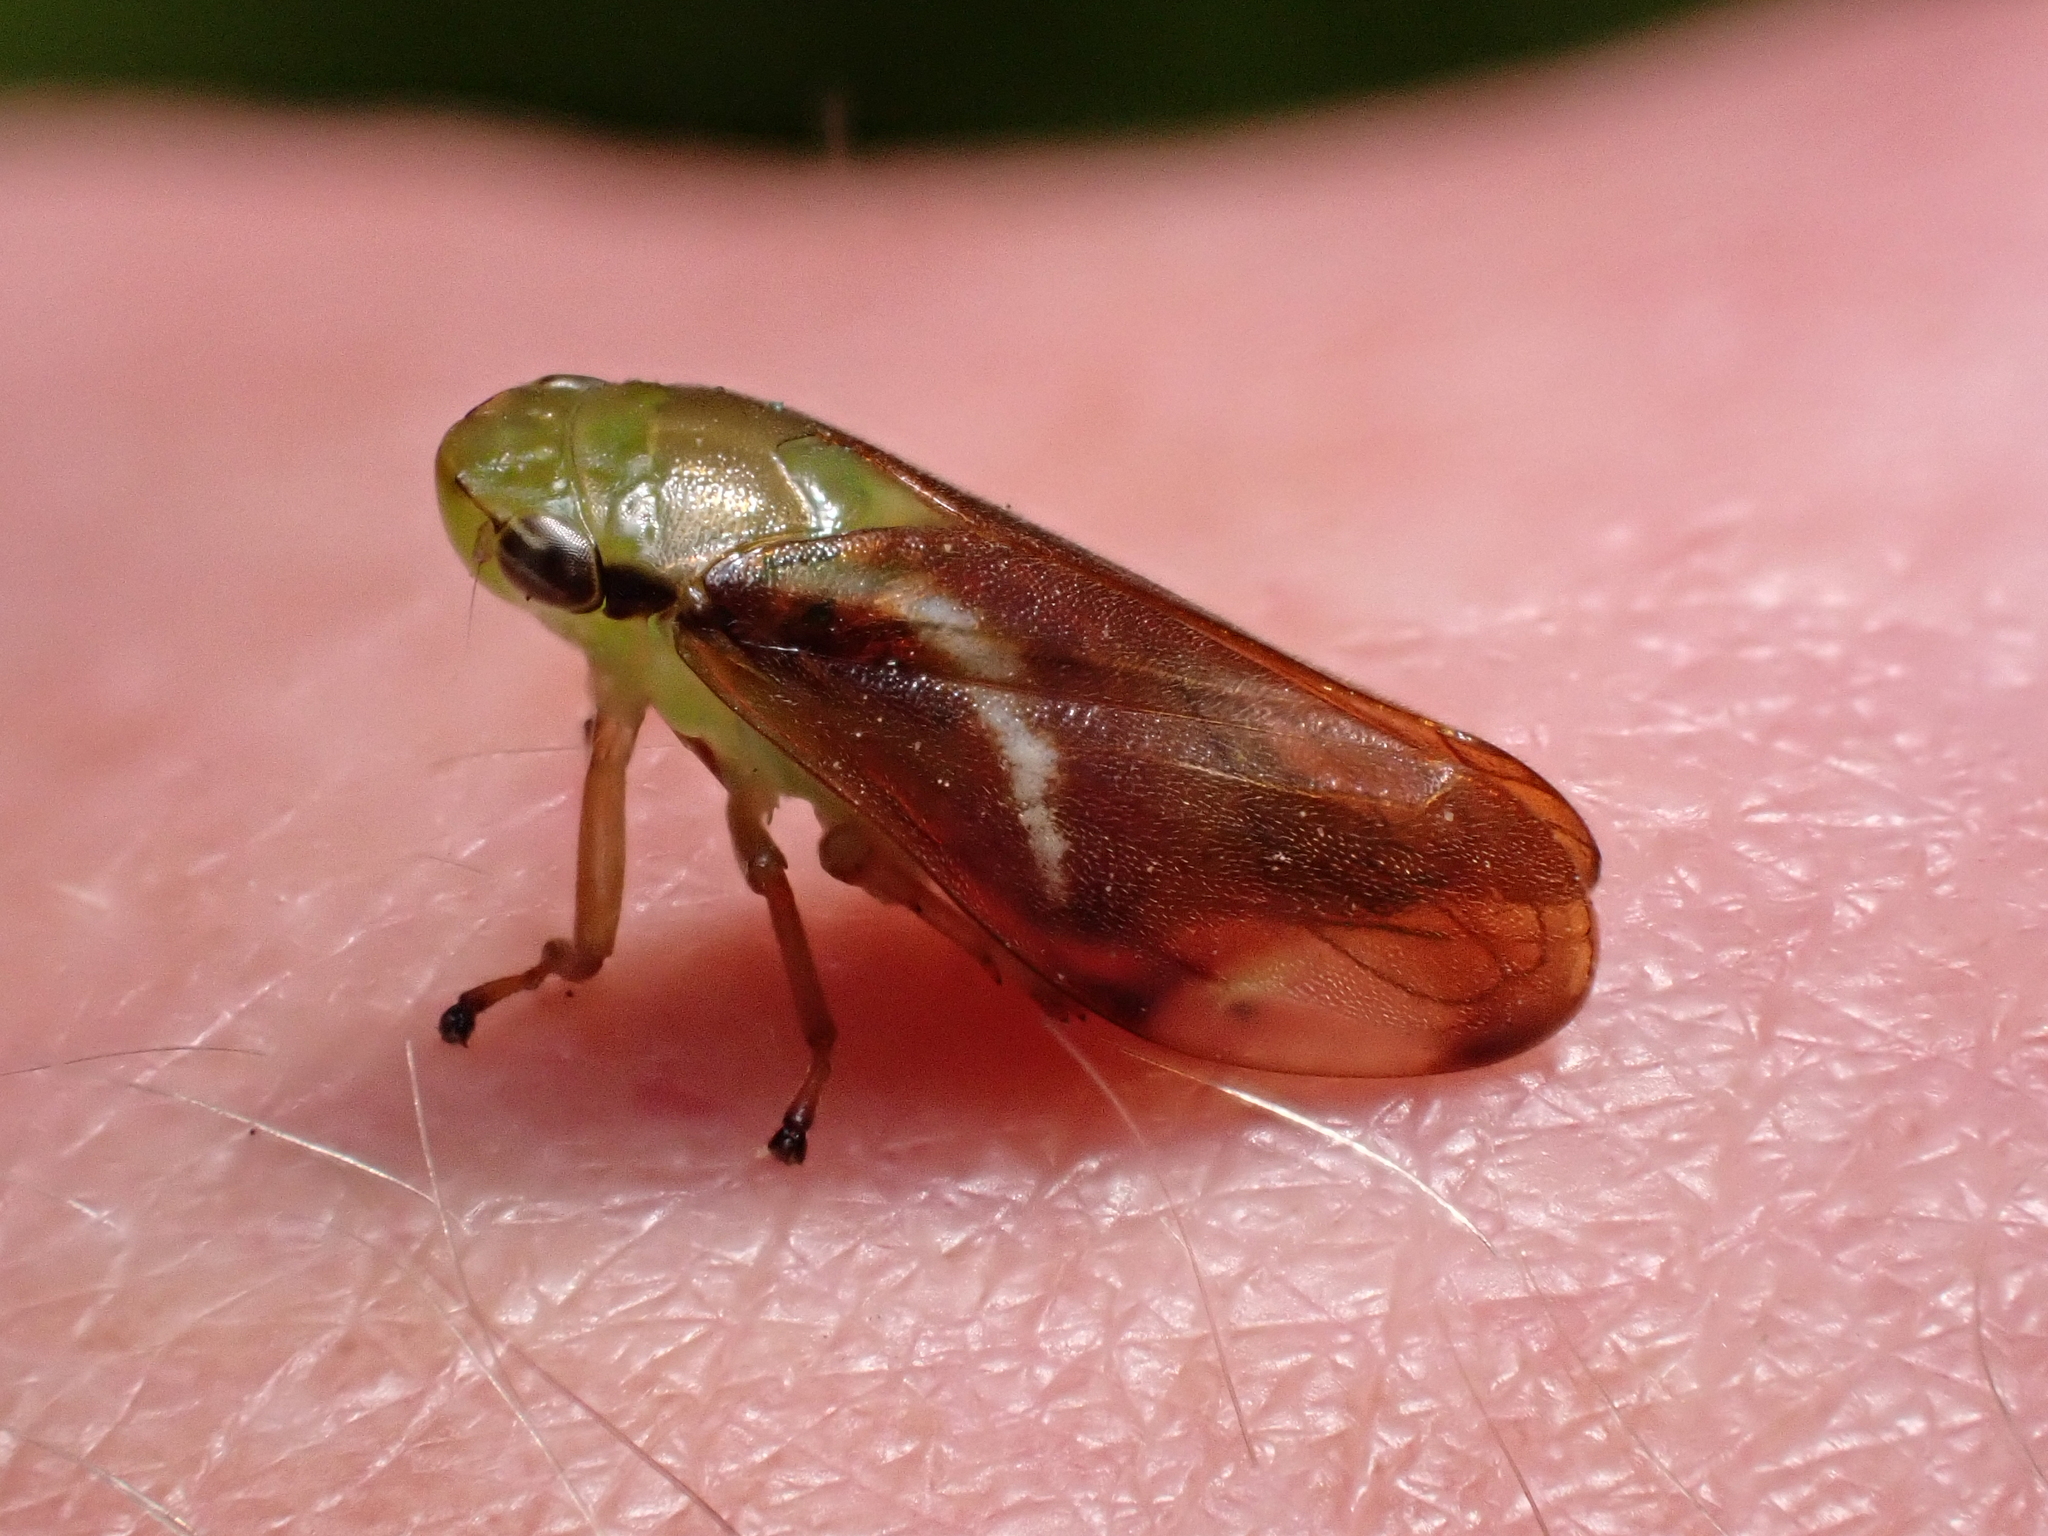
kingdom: Animalia
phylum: Arthropoda
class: Insecta
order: Hemiptera
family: Aphrophoridae
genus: Carystoterpa
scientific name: Carystoterpa fingens
